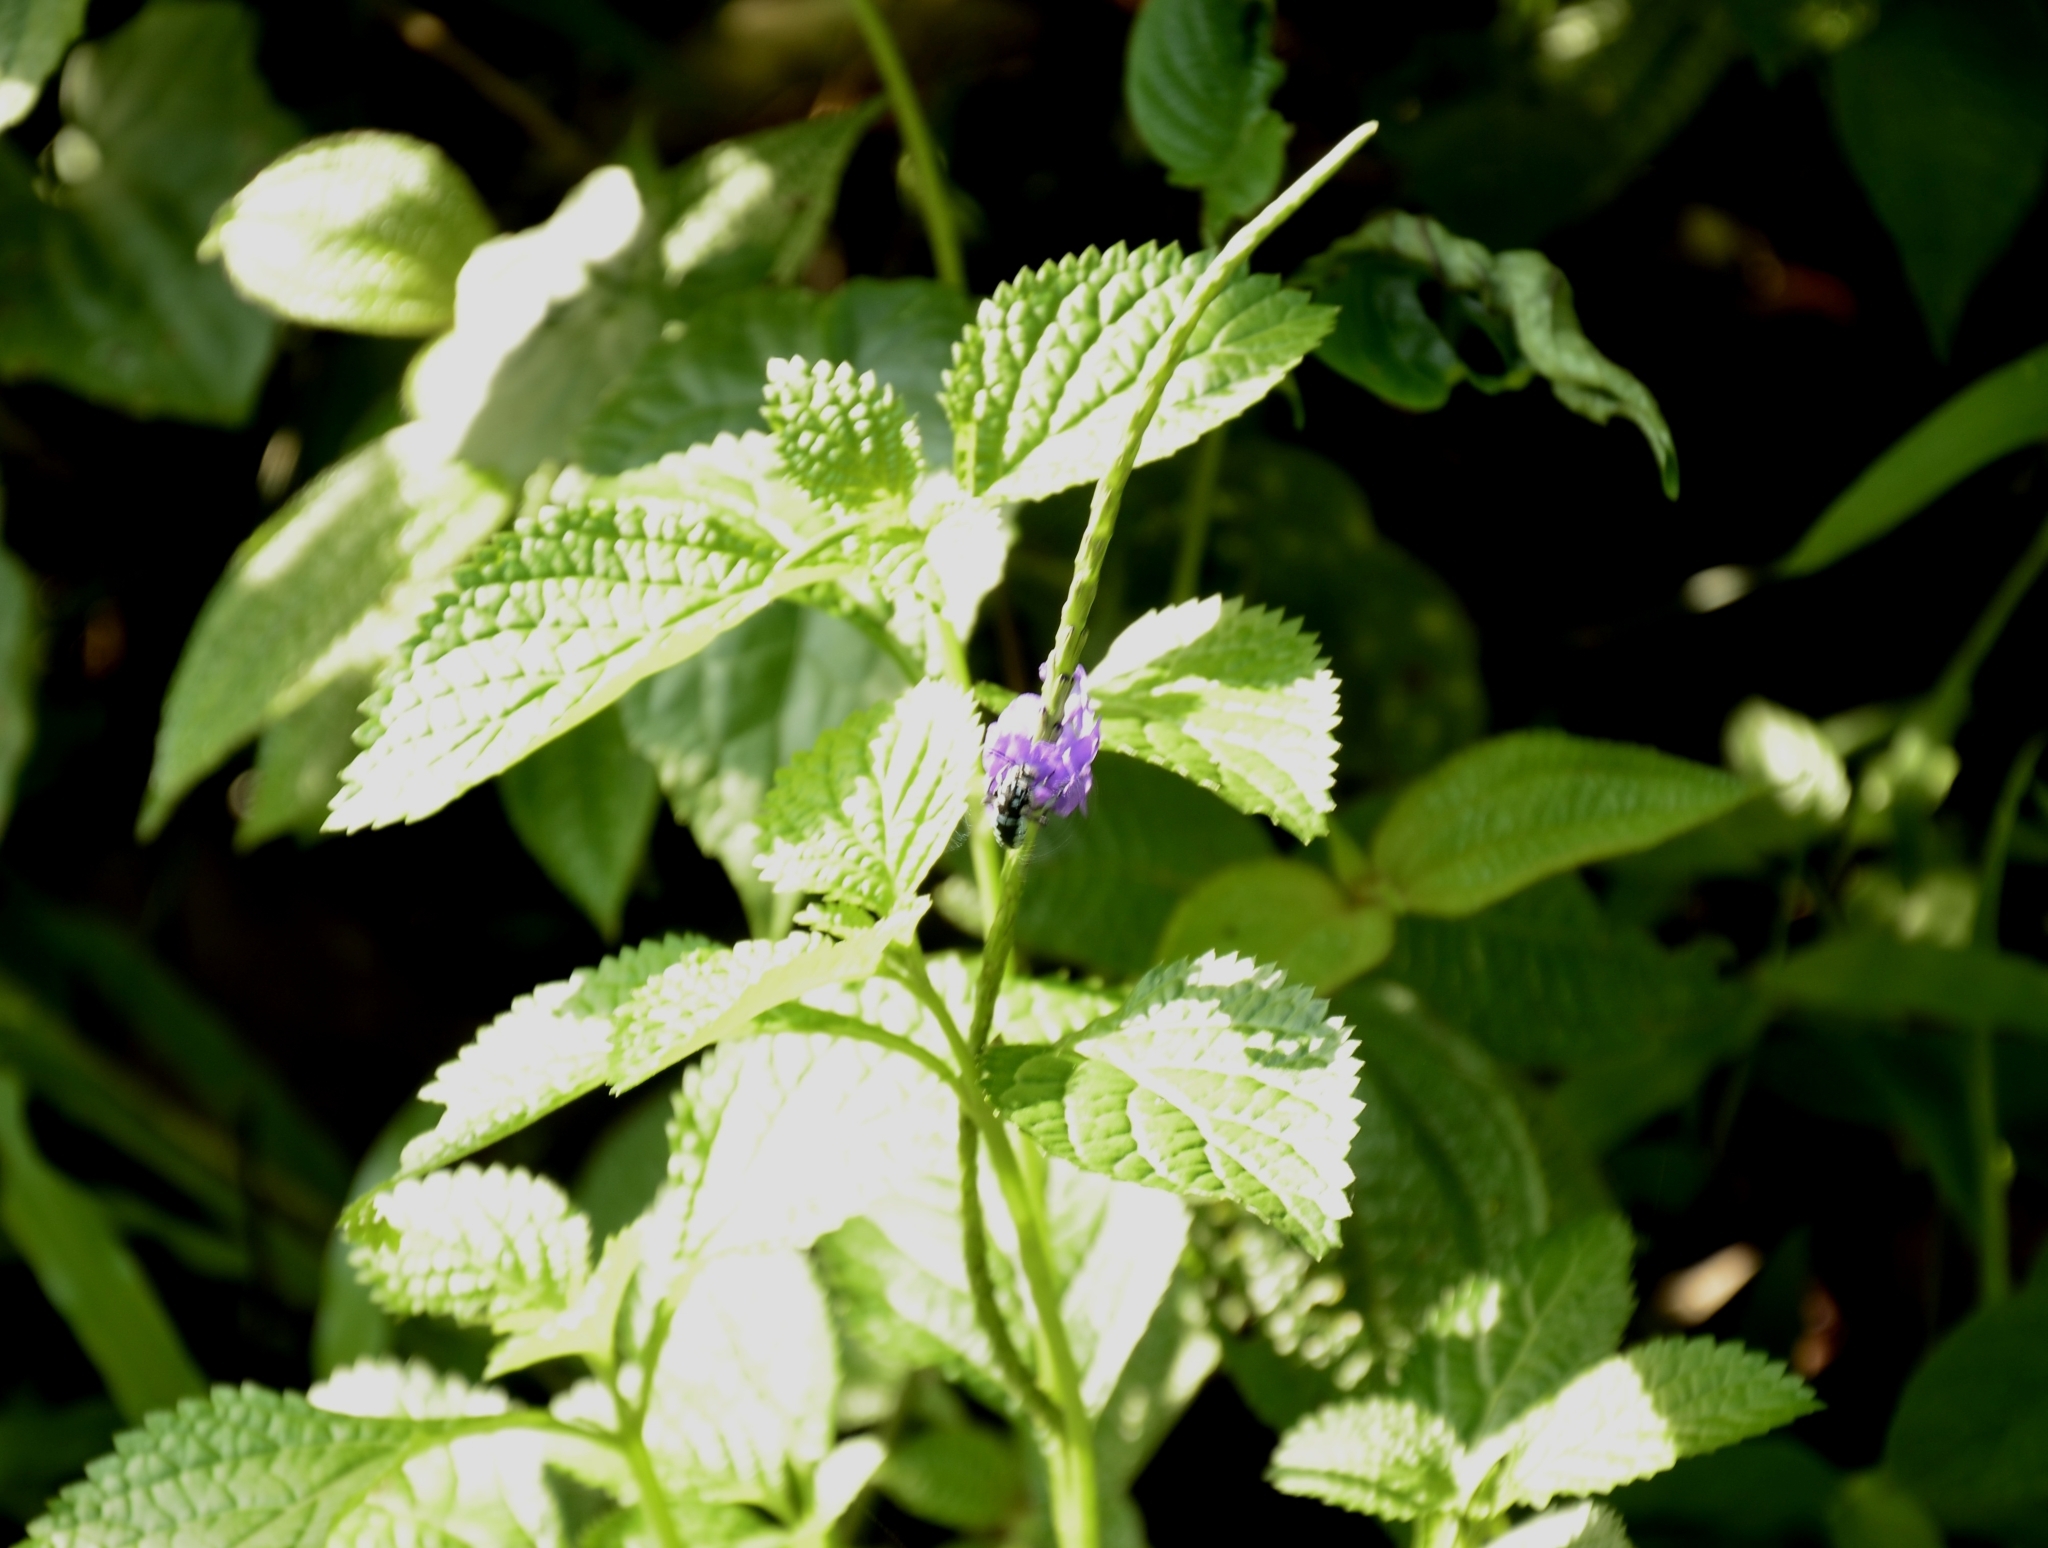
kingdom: Plantae
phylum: Tracheophyta
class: Magnoliopsida
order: Lamiales
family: Verbenaceae
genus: Stachytarpheta
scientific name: Stachytarpheta jamaicensis
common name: Light-blue snakeweed
